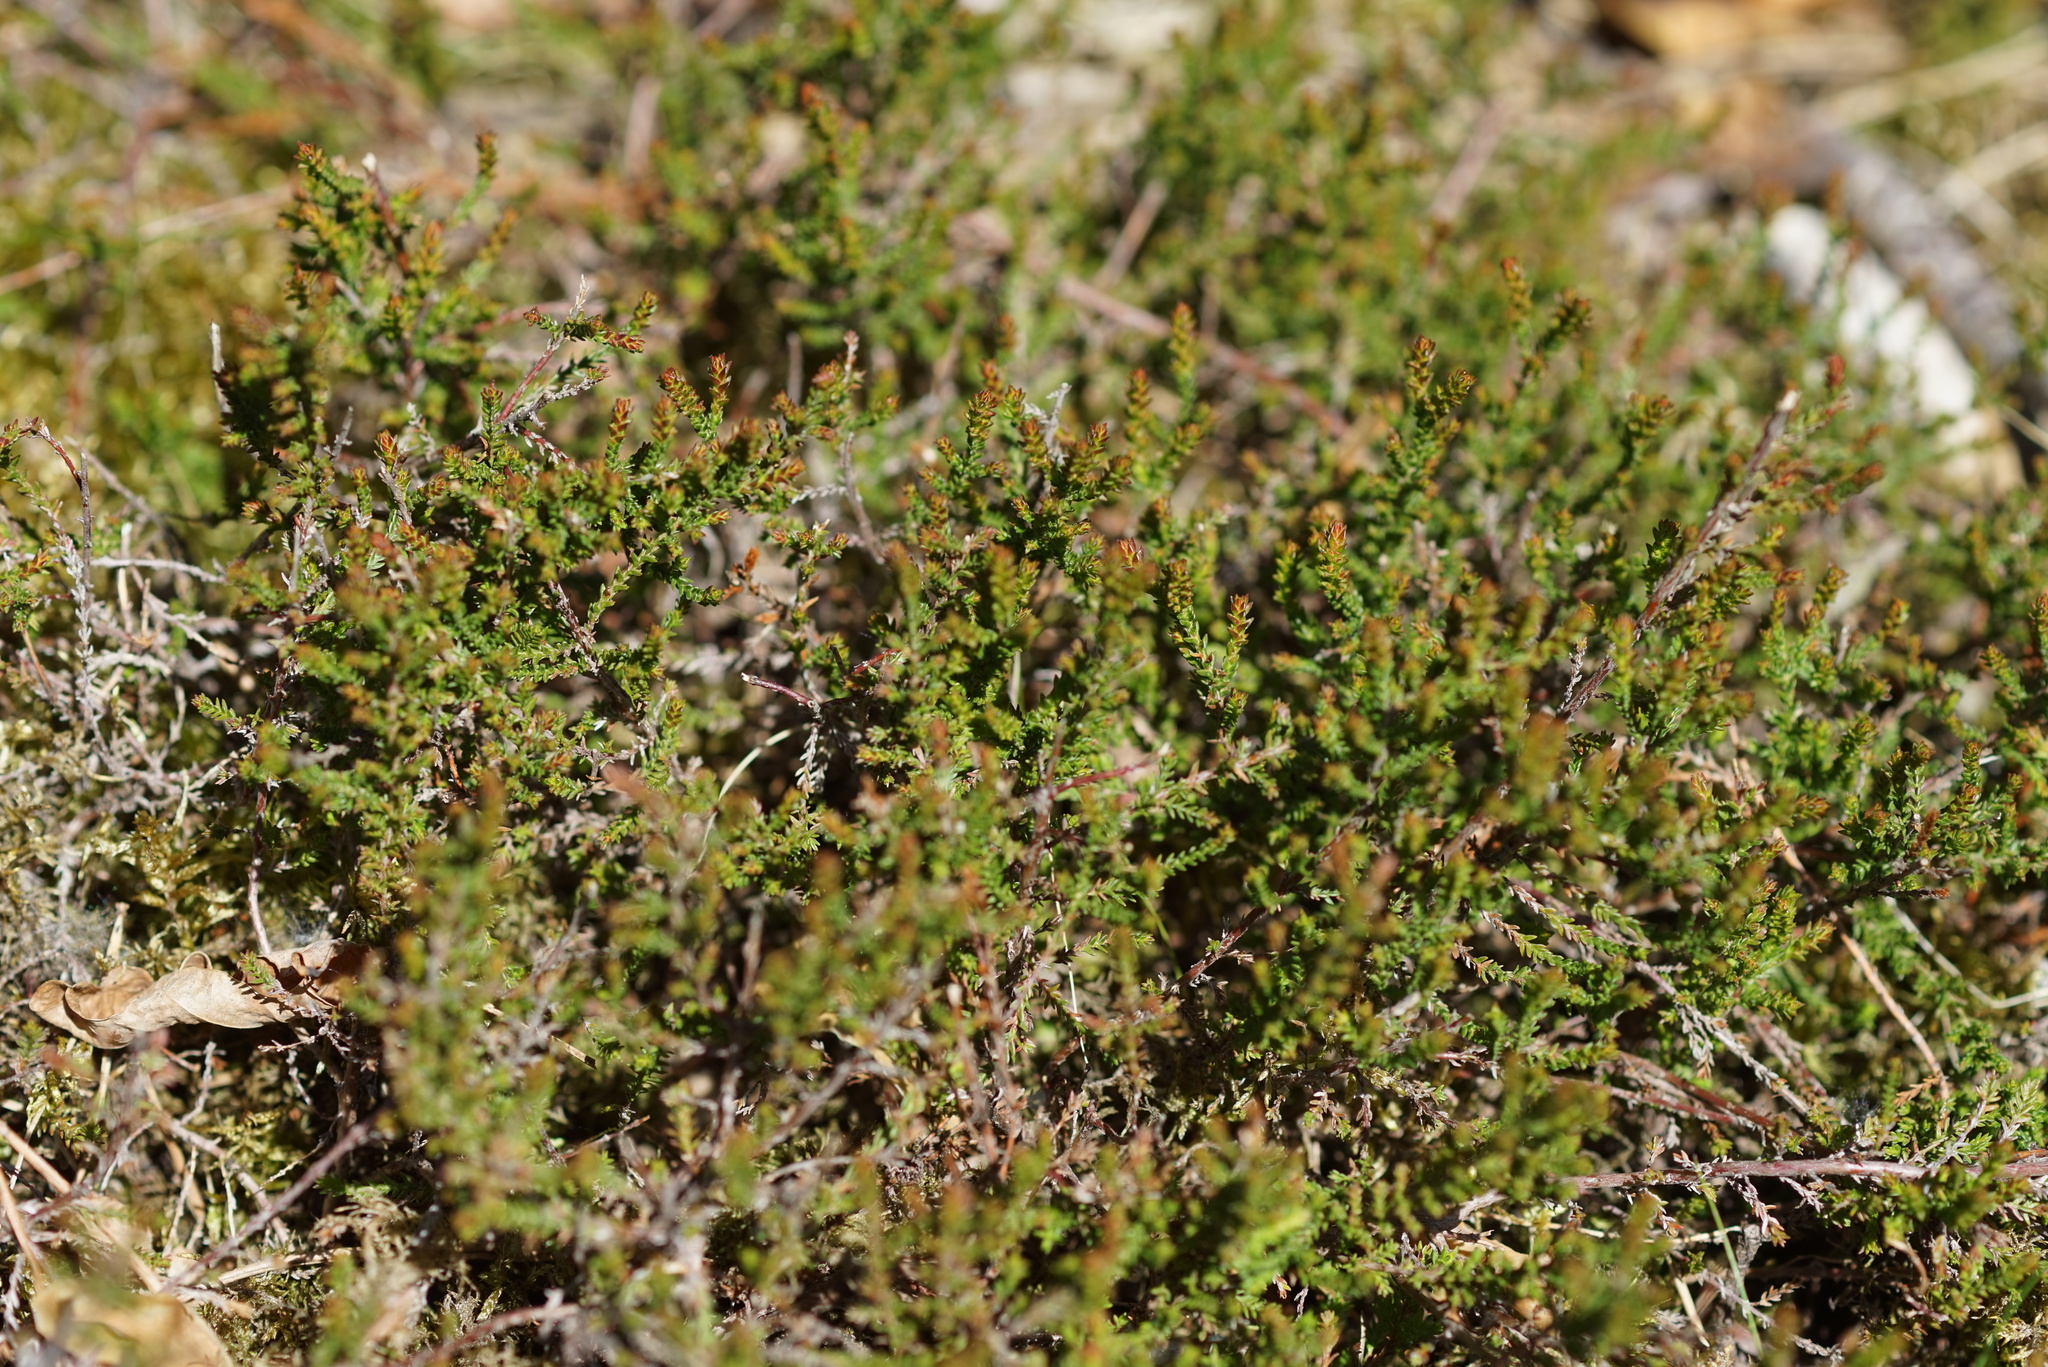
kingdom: Plantae
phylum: Tracheophyta
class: Magnoliopsida
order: Ericales
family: Ericaceae
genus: Calluna
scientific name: Calluna vulgaris
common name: Heather
